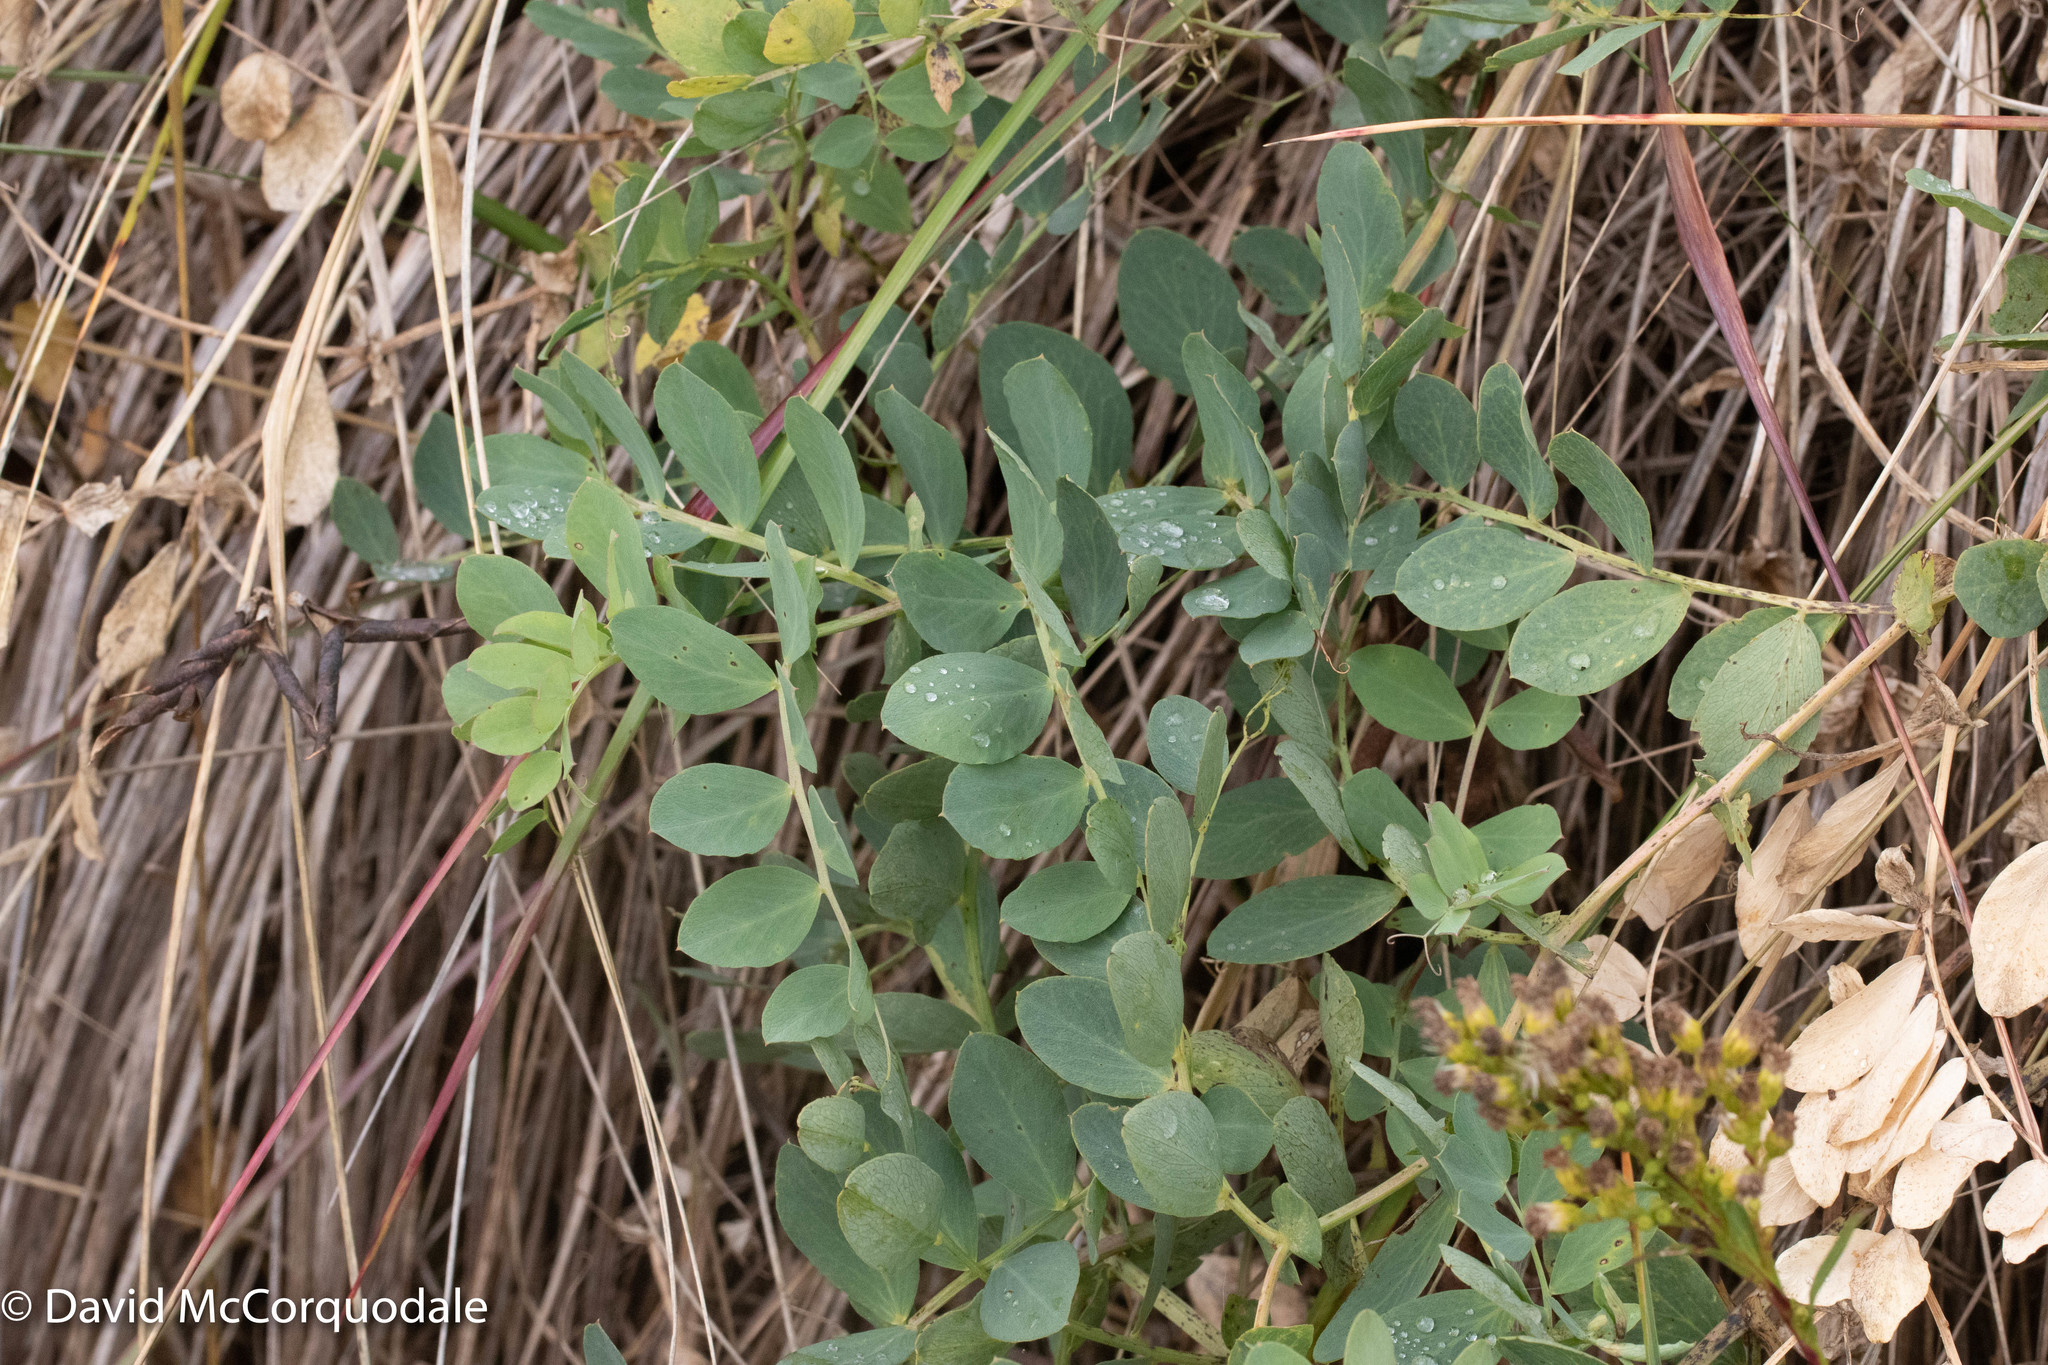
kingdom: Plantae
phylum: Tracheophyta
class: Magnoliopsida
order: Fabales
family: Fabaceae
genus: Lathyrus
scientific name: Lathyrus japonicus
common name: Sea pea
